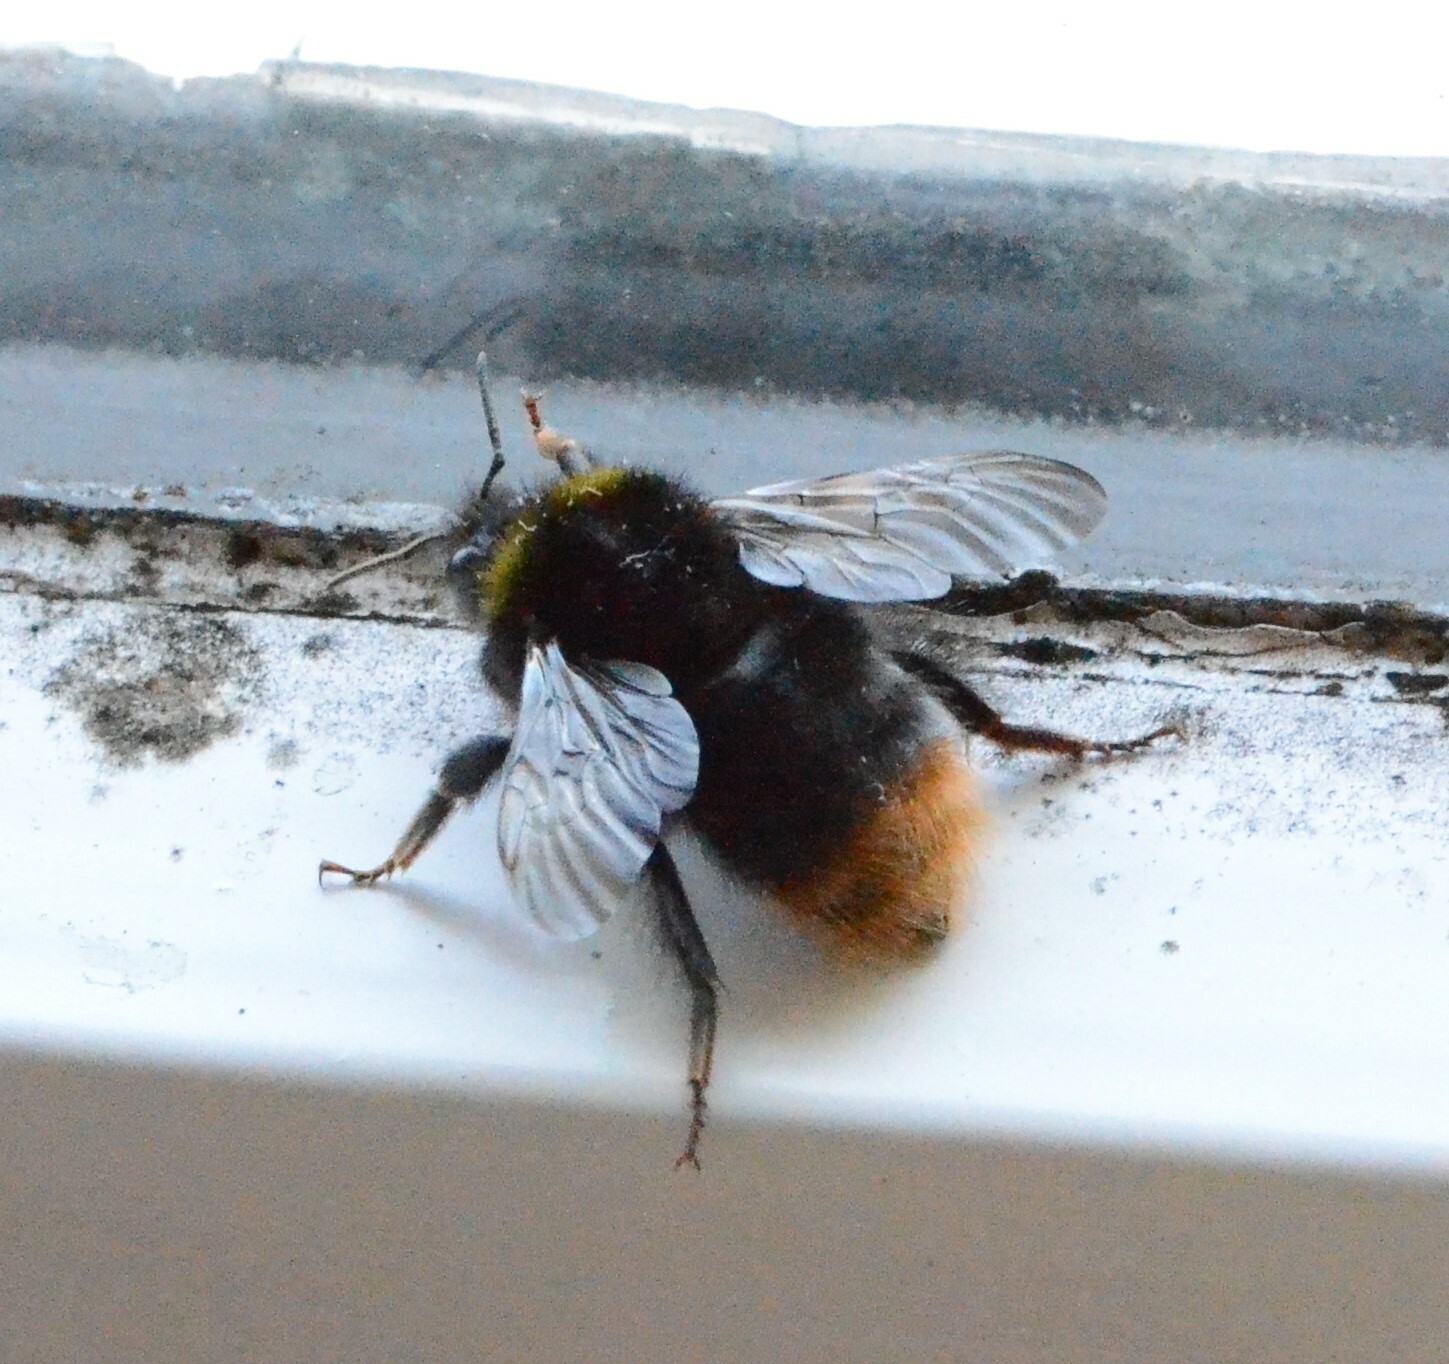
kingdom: Animalia
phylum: Arthropoda
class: Insecta
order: Hymenoptera
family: Apidae
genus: Bombus
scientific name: Bombus pratorum
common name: Early humble-bee
